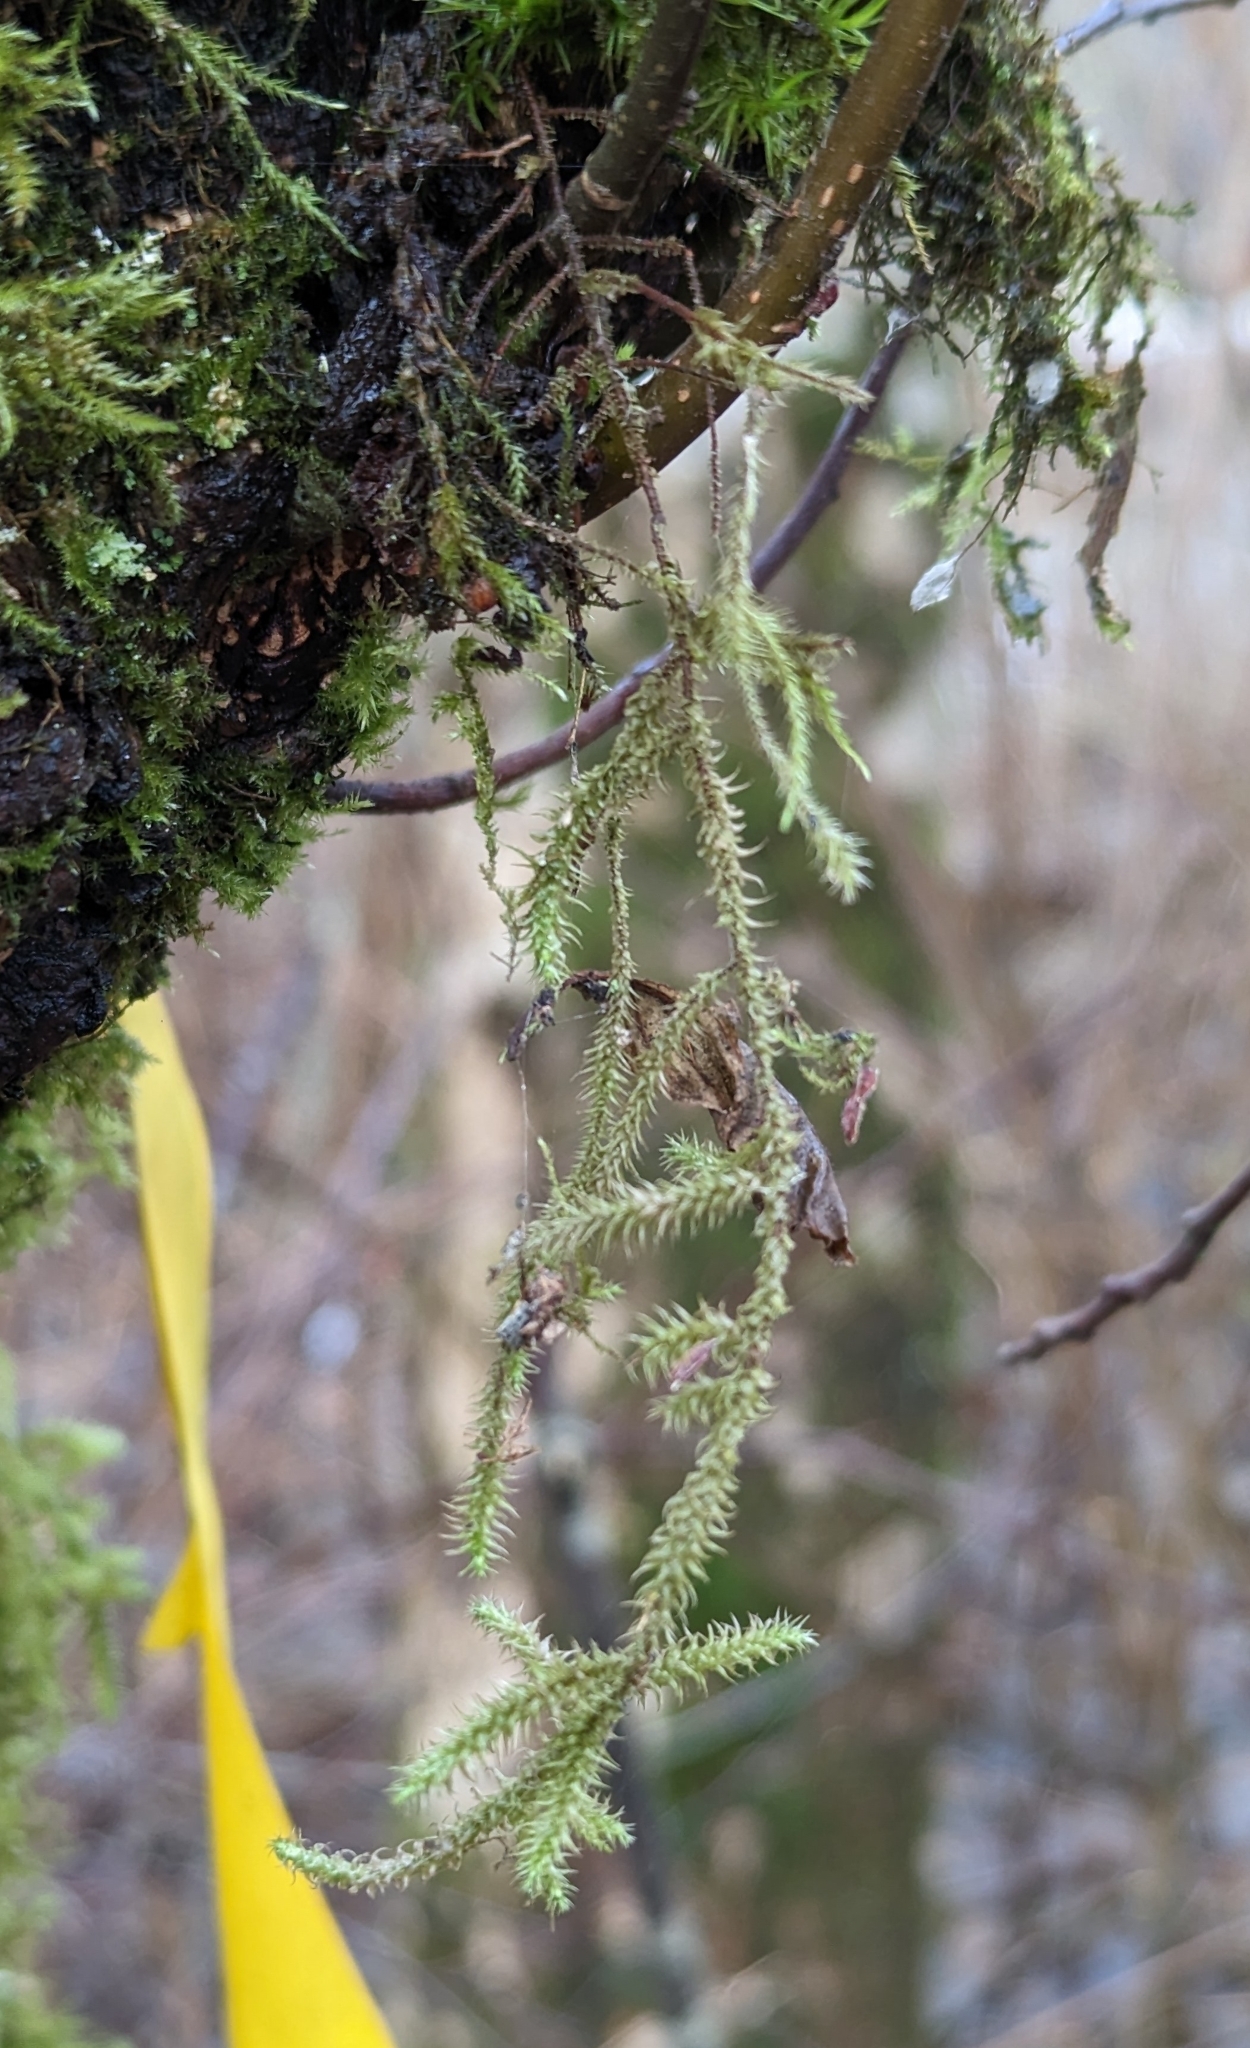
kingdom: Plantae
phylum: Bryophyta
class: Bryopsida
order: Hypnales
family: Hylocomiaceae
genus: Rhytidiadelphus
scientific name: Rhytidiadelphus loreus
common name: Lanky moss
